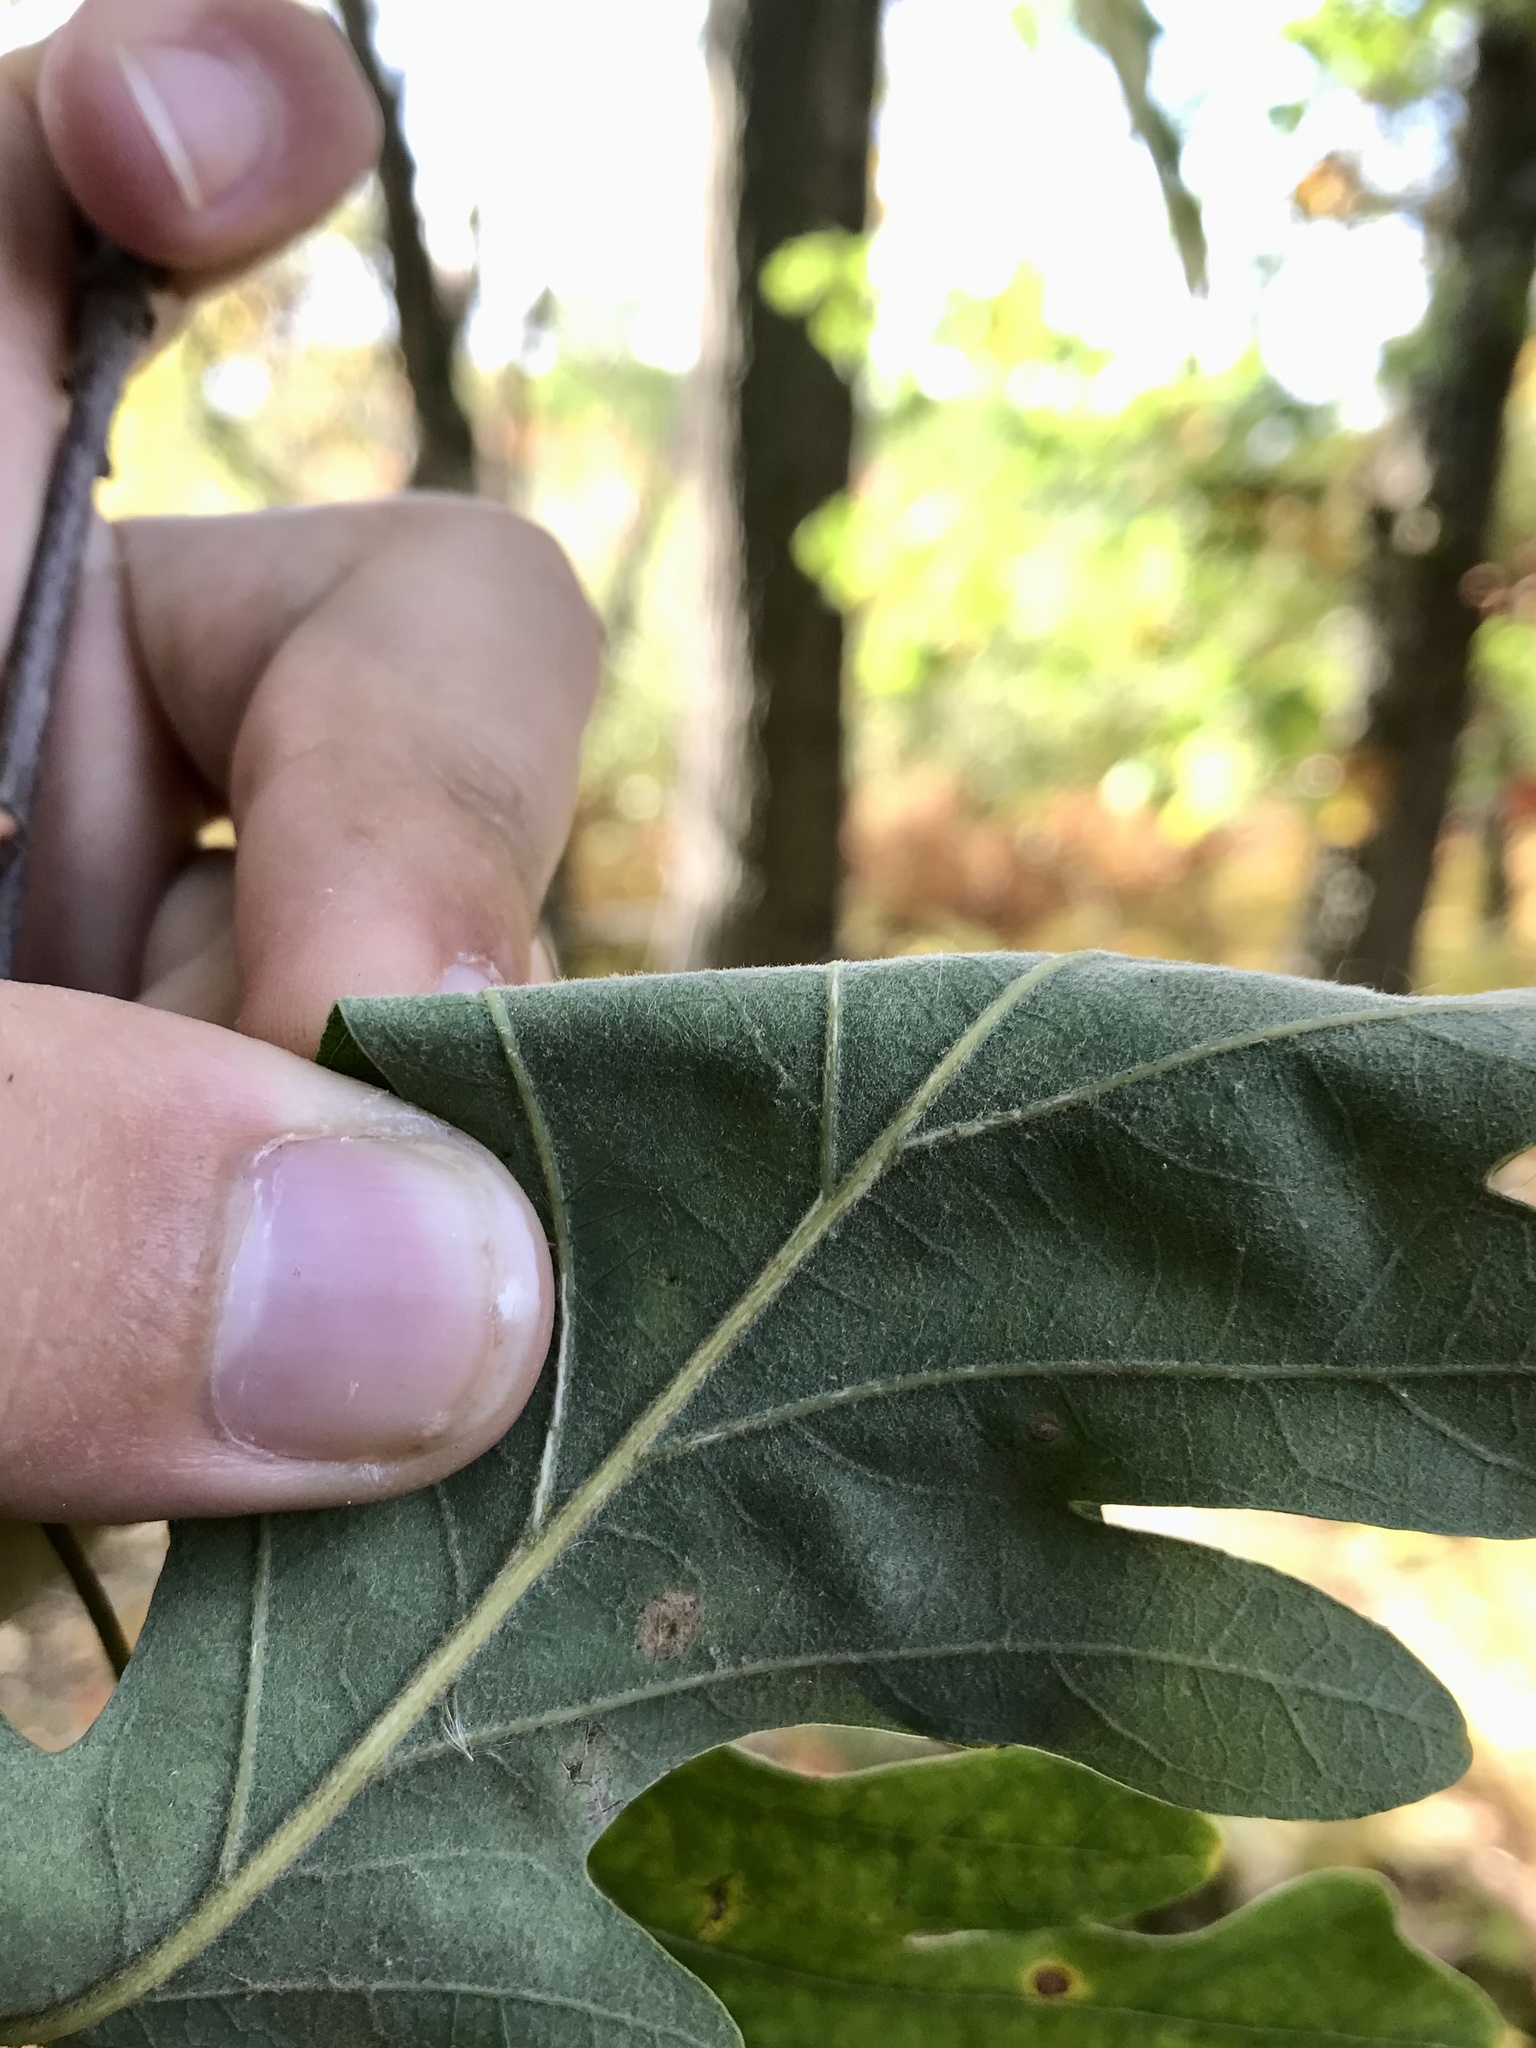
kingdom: Plantae
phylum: Tracheophyta
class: Magnoliopsida
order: Fagales
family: Fagaceae
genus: Quercus
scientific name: Quercus bebbiana
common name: Bebb's oak
